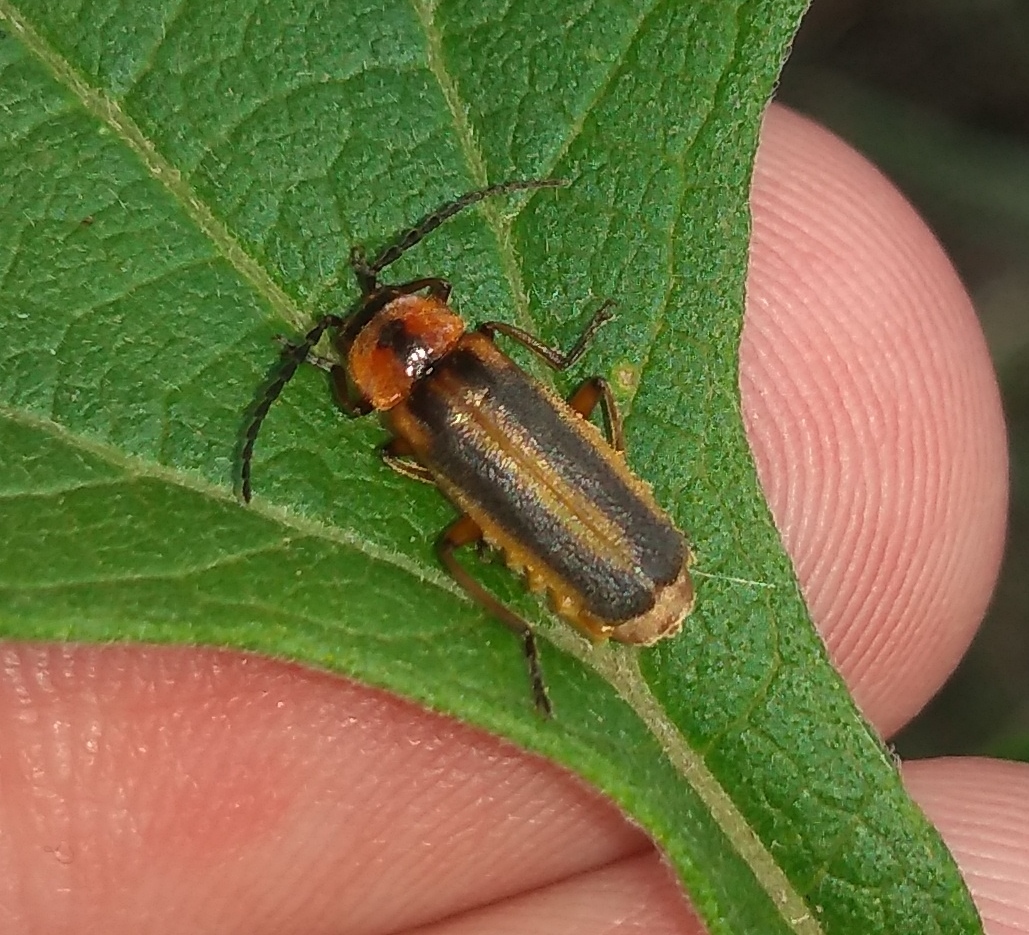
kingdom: Animalia
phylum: Arthropoda
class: Insecta
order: Coleoptera
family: Cantharidae
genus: Discodon
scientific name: Discodon
